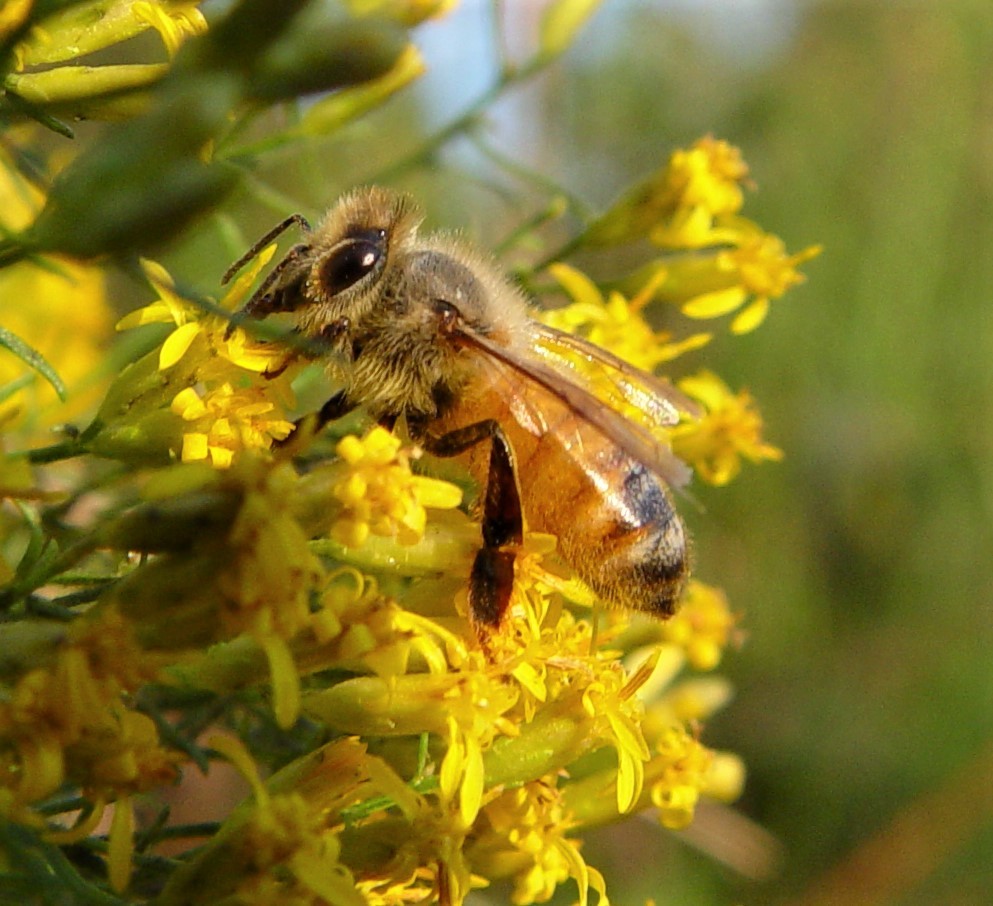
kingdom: Animalia
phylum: Arthropoda
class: Insecta
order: Hymenoptera
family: Apidae
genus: Apis
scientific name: Apis mellifera
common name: Honey bee
